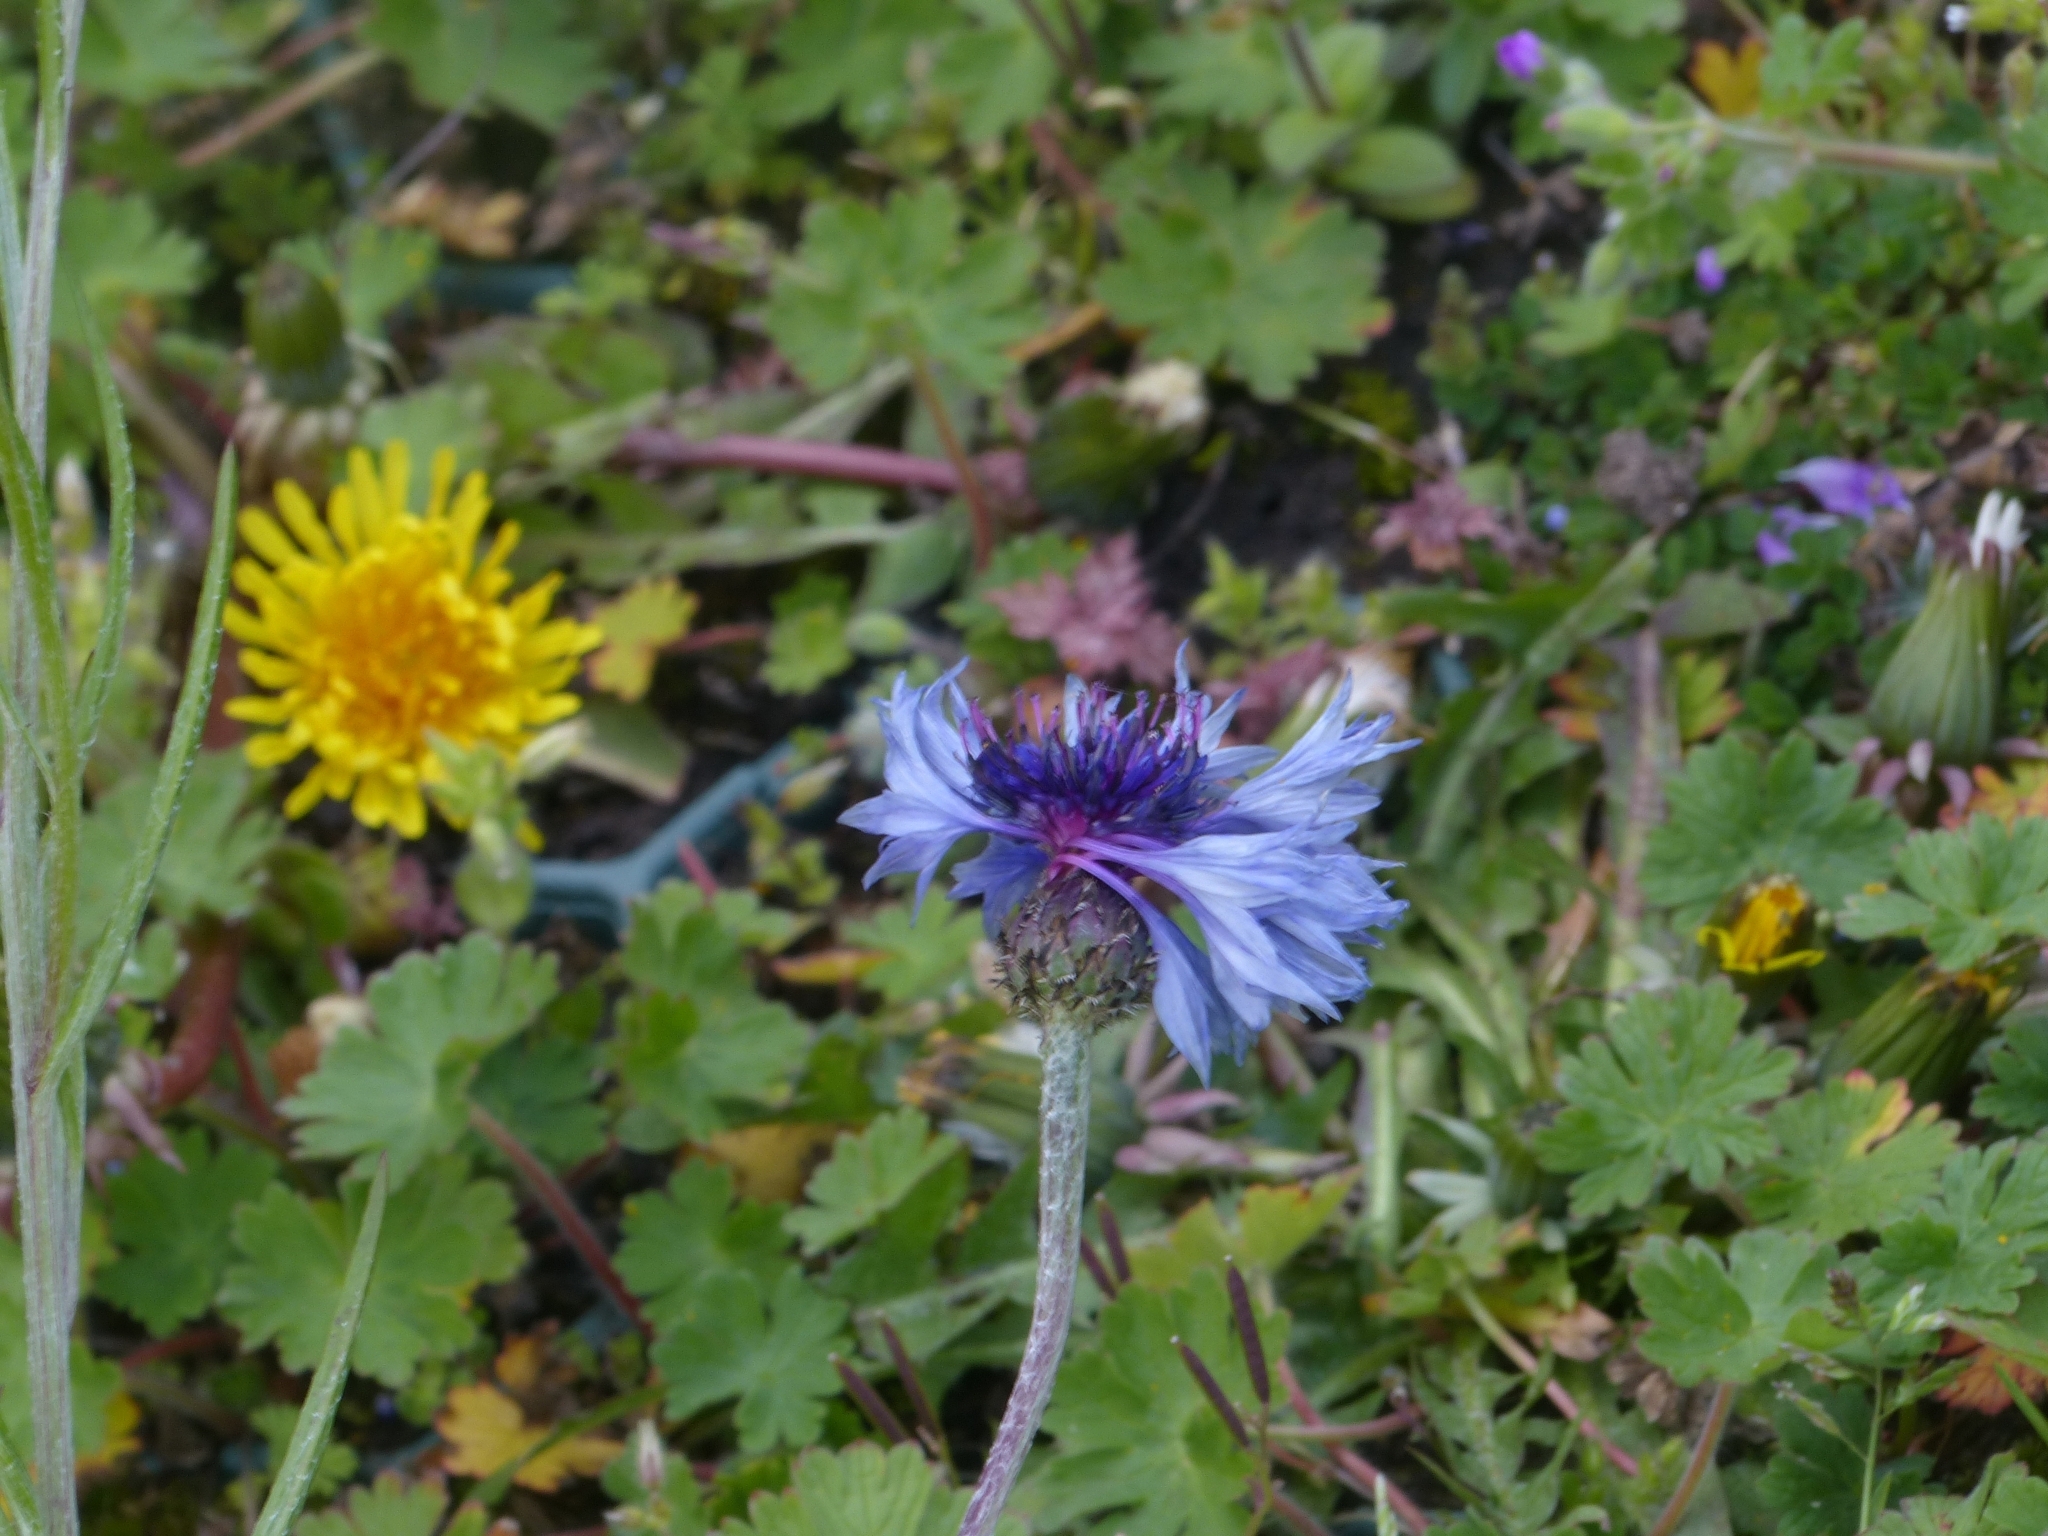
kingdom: Plantae
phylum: Tracheophyta
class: Magnoliopsida
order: Asterales
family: Asteraceae
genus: Centaurea
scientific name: Centaurea cyanus
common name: Cornflower
